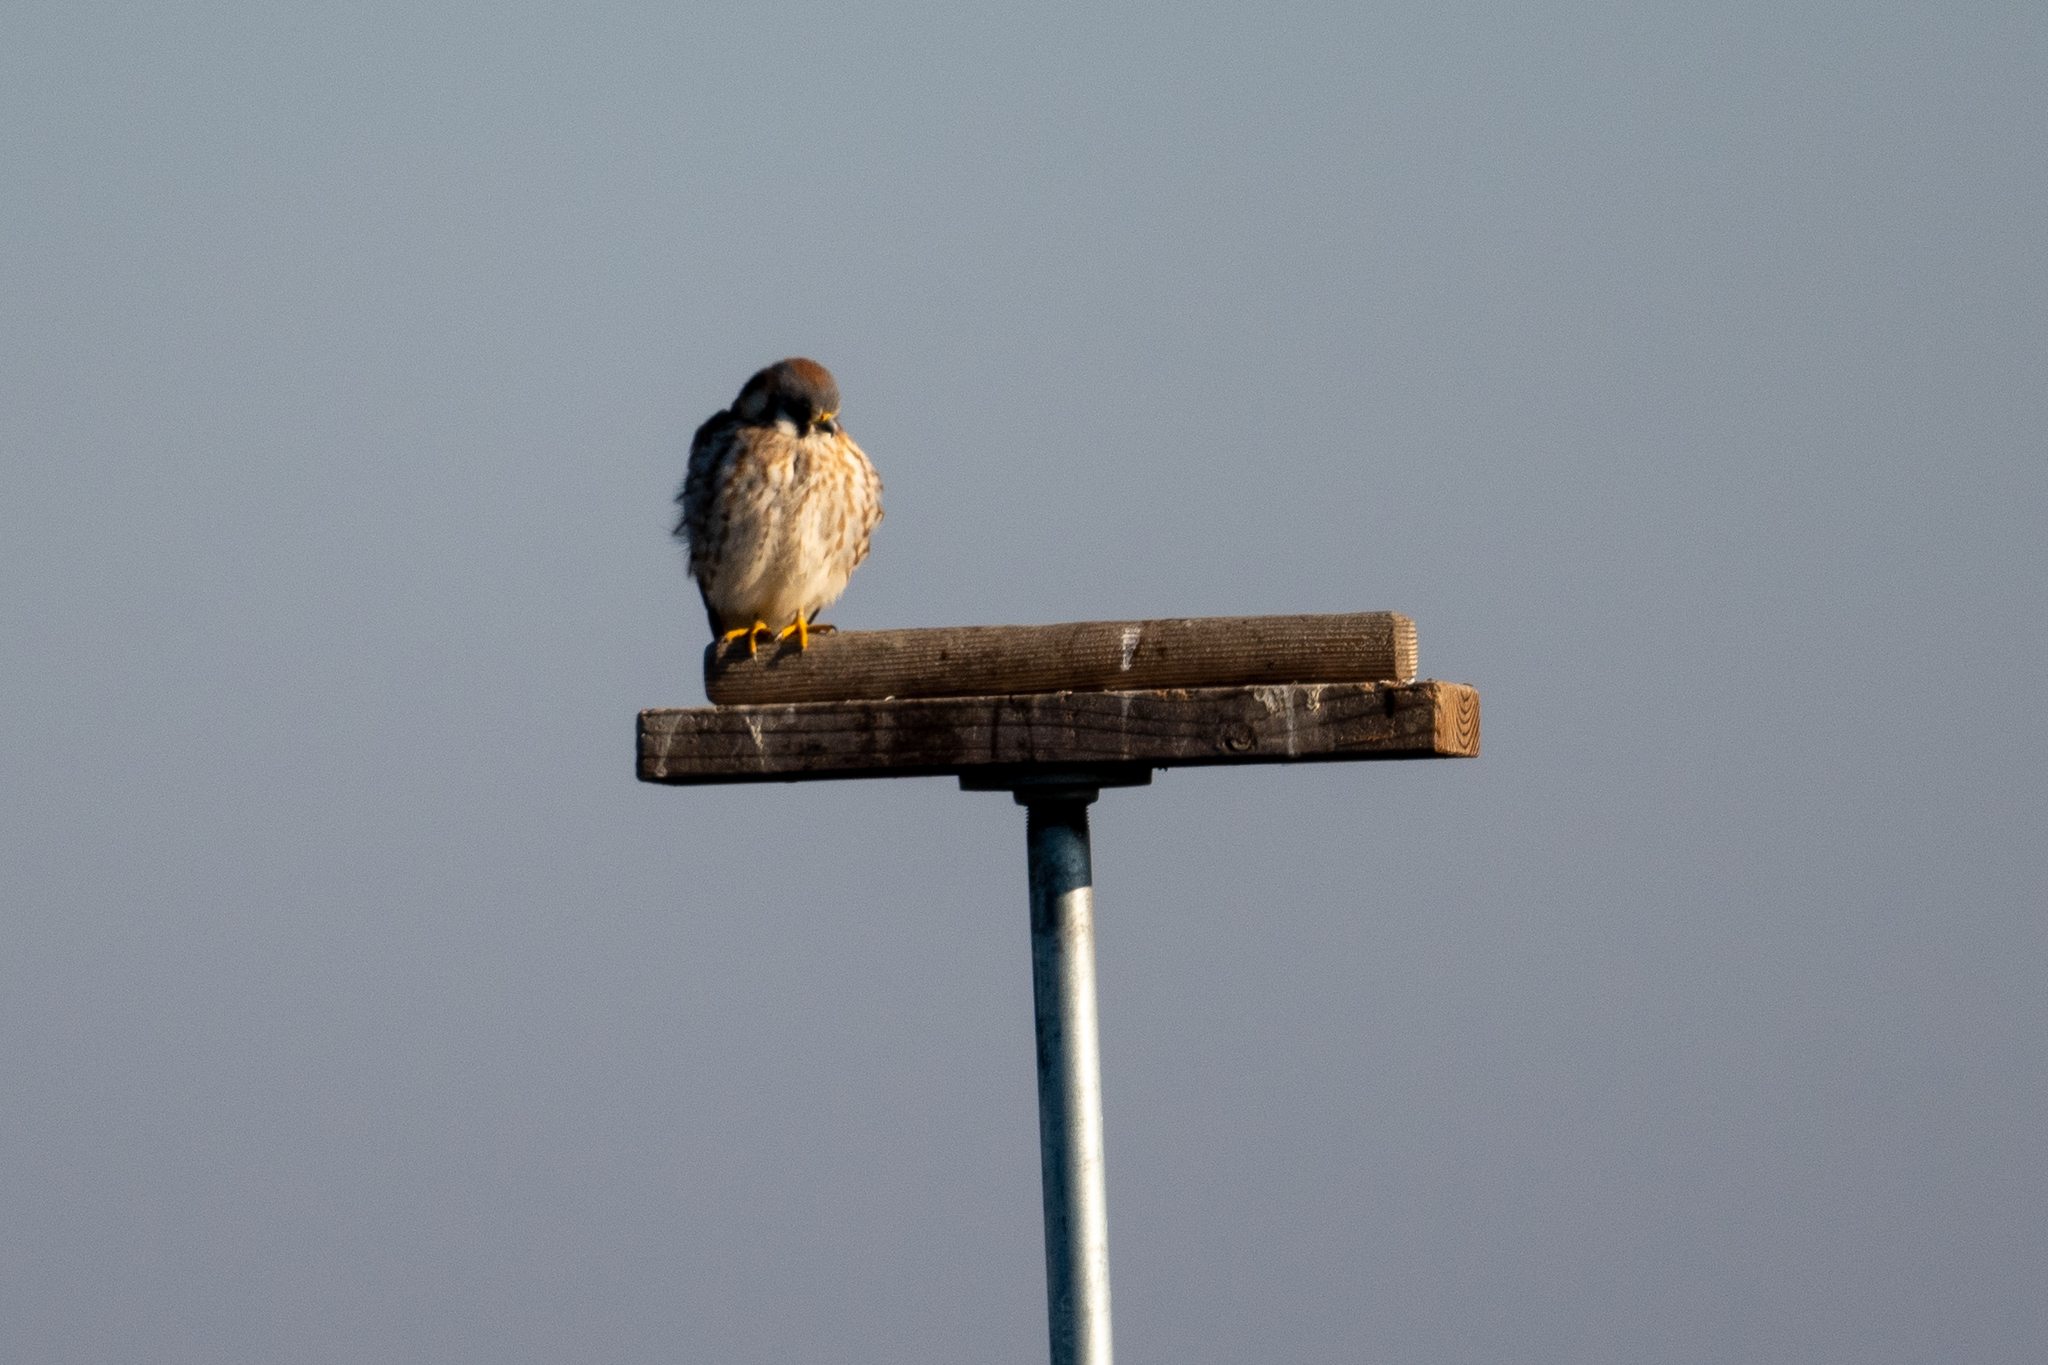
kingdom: Animalia
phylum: Chordata
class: Aves
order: Falconiformes
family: Falconidae
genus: Falco
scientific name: Falco sparverius
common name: American kestrel
